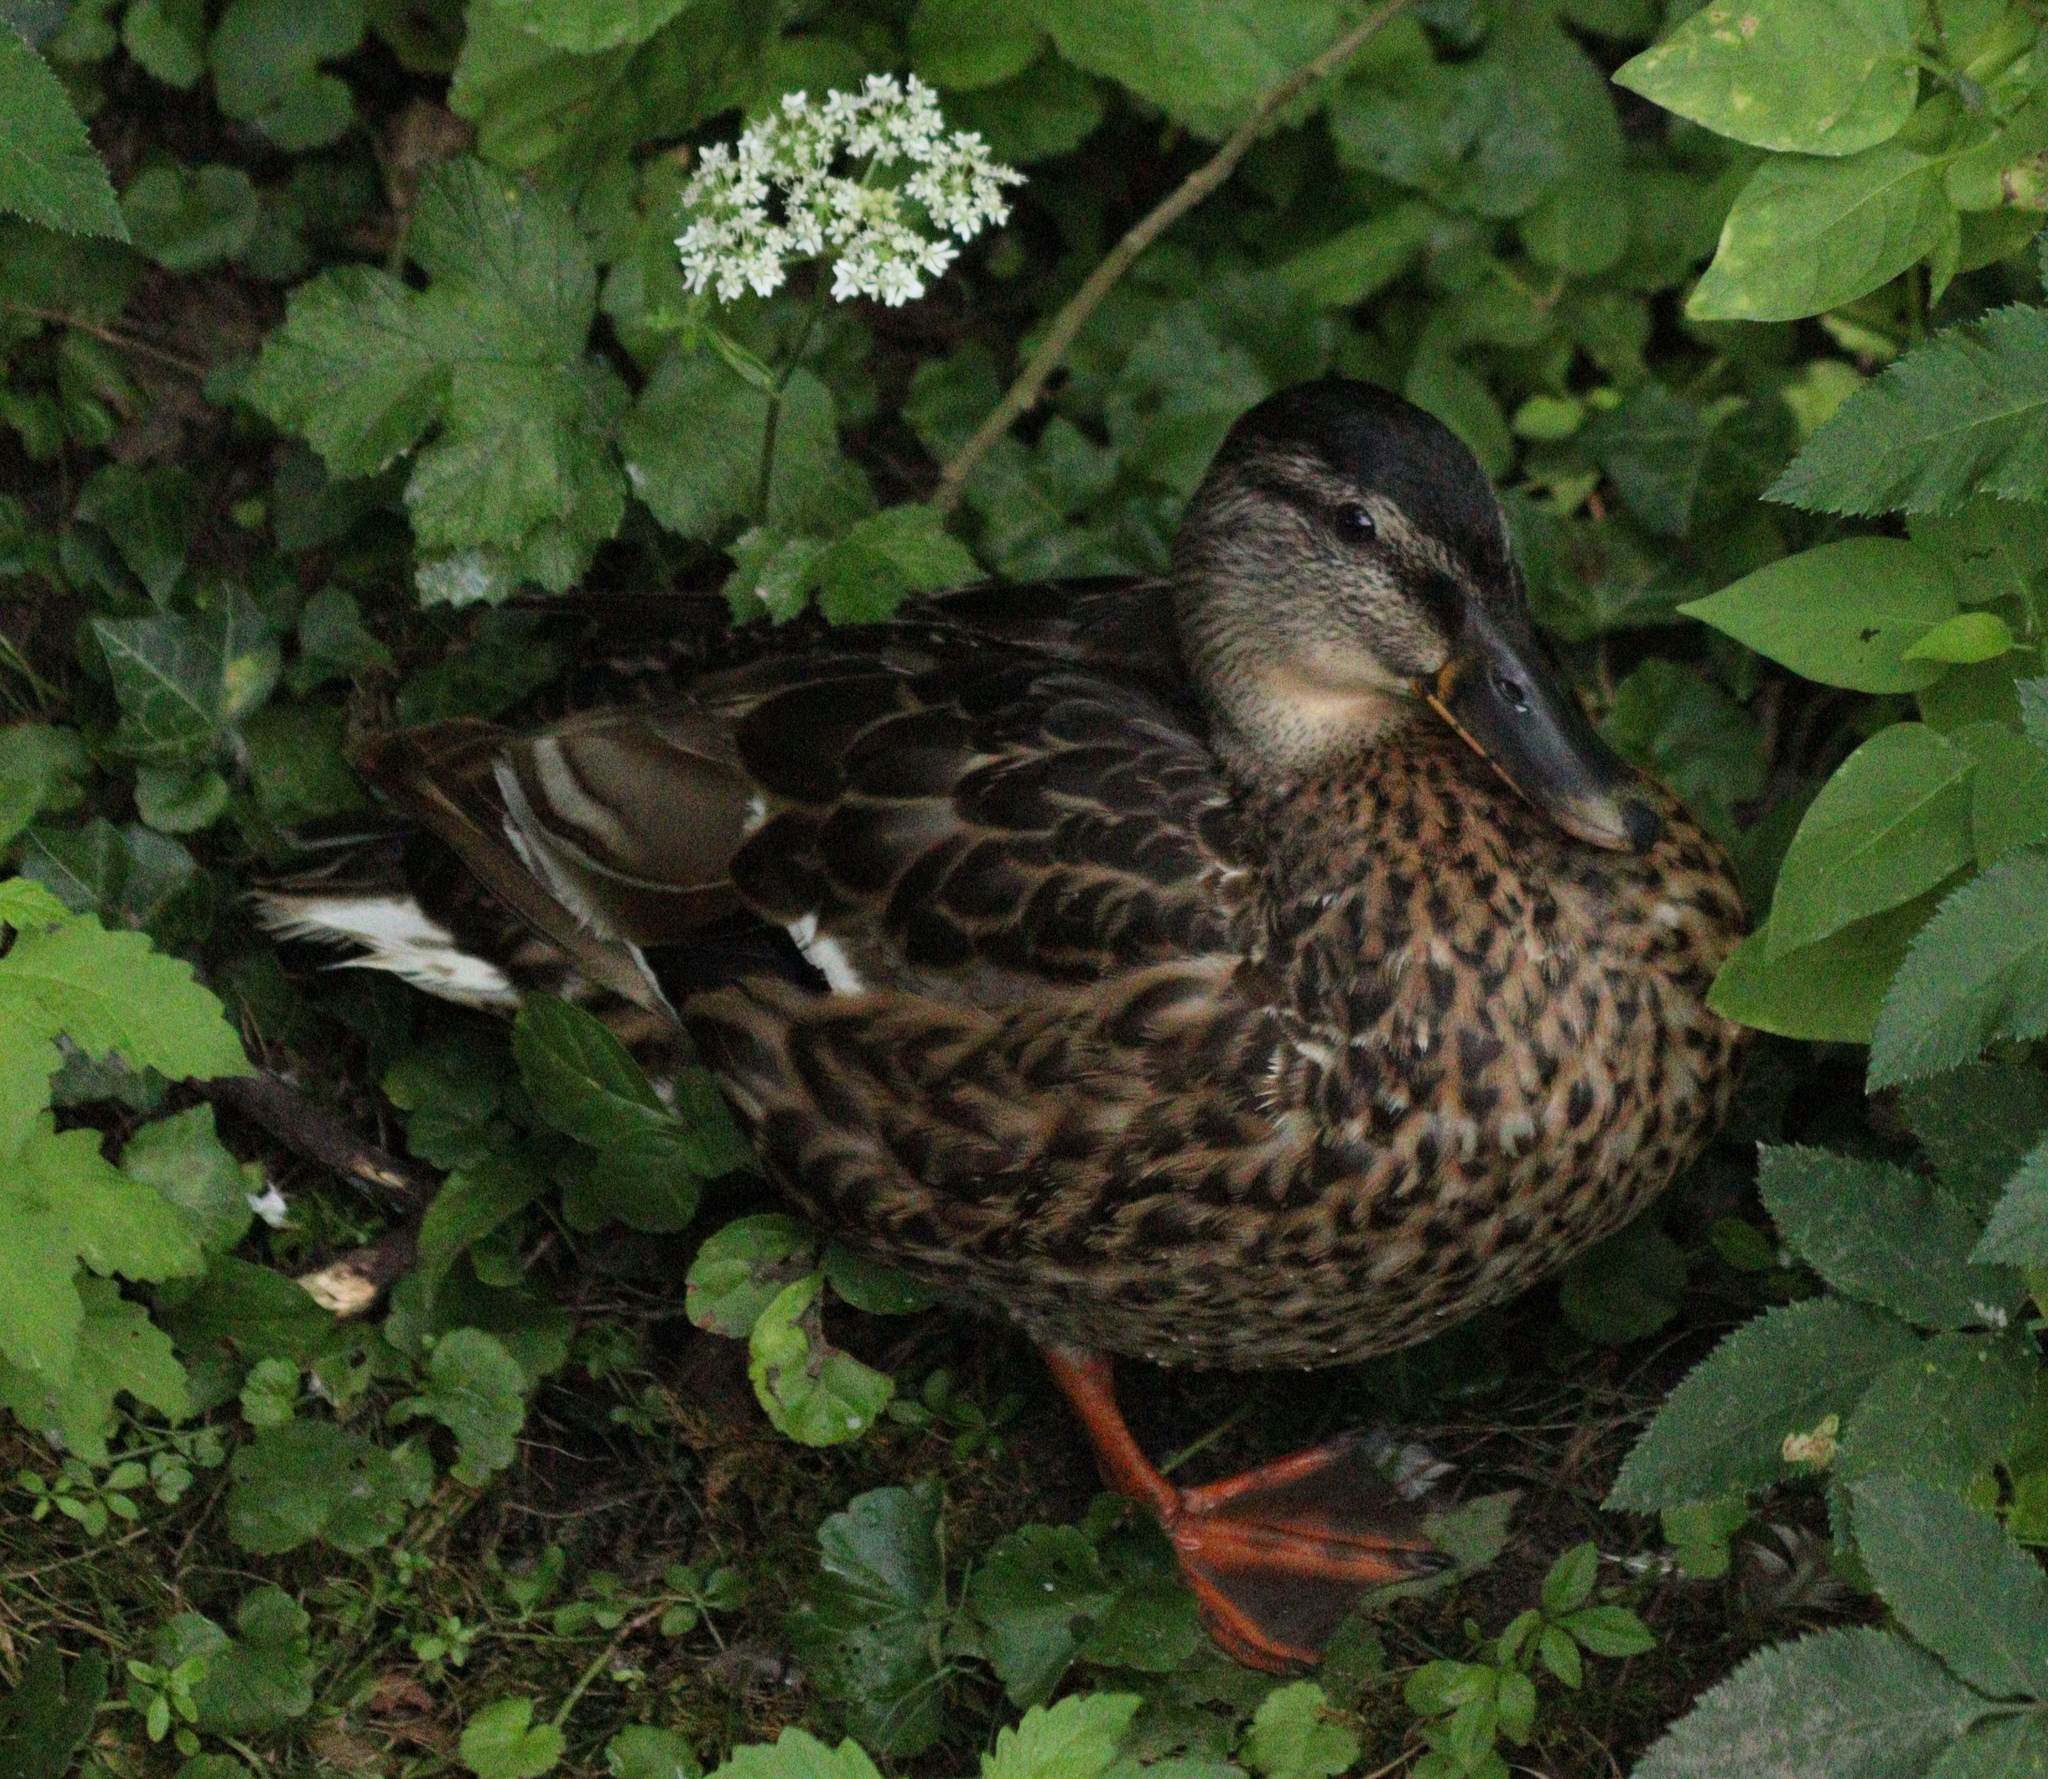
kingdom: Animalia
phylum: Chordata
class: Aves
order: Anseriformes
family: Anatidae
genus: Anas
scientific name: Anas platyrhynchos
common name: Mallard
